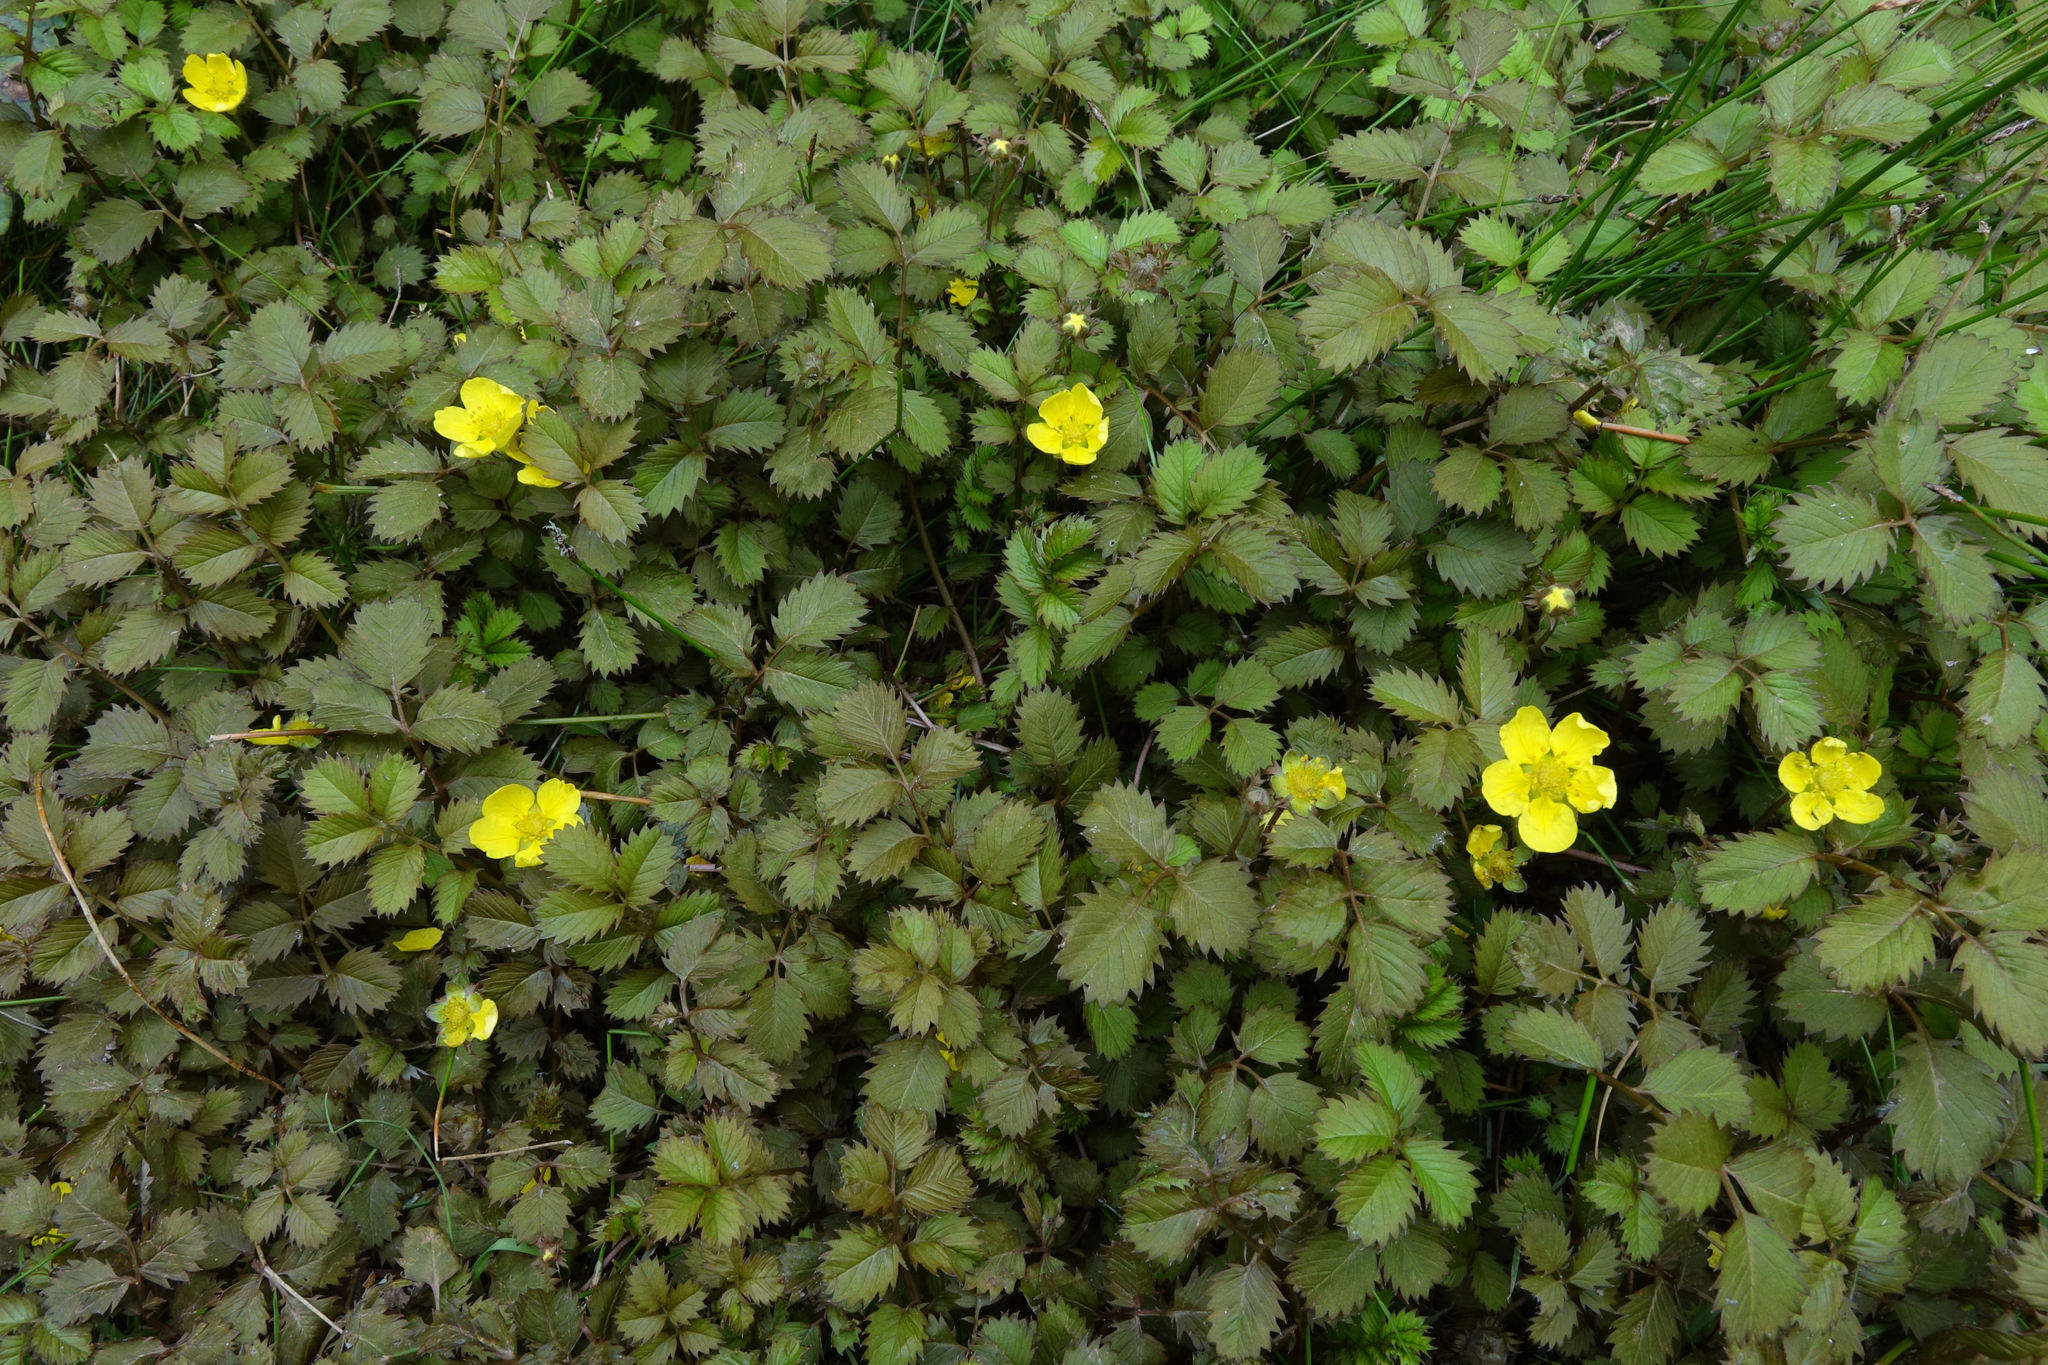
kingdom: Plantae
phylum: Tracheophyta
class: Magnoliopsida
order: Rosales
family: Rosaceae
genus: Argentina
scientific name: Argentina anserinoides
